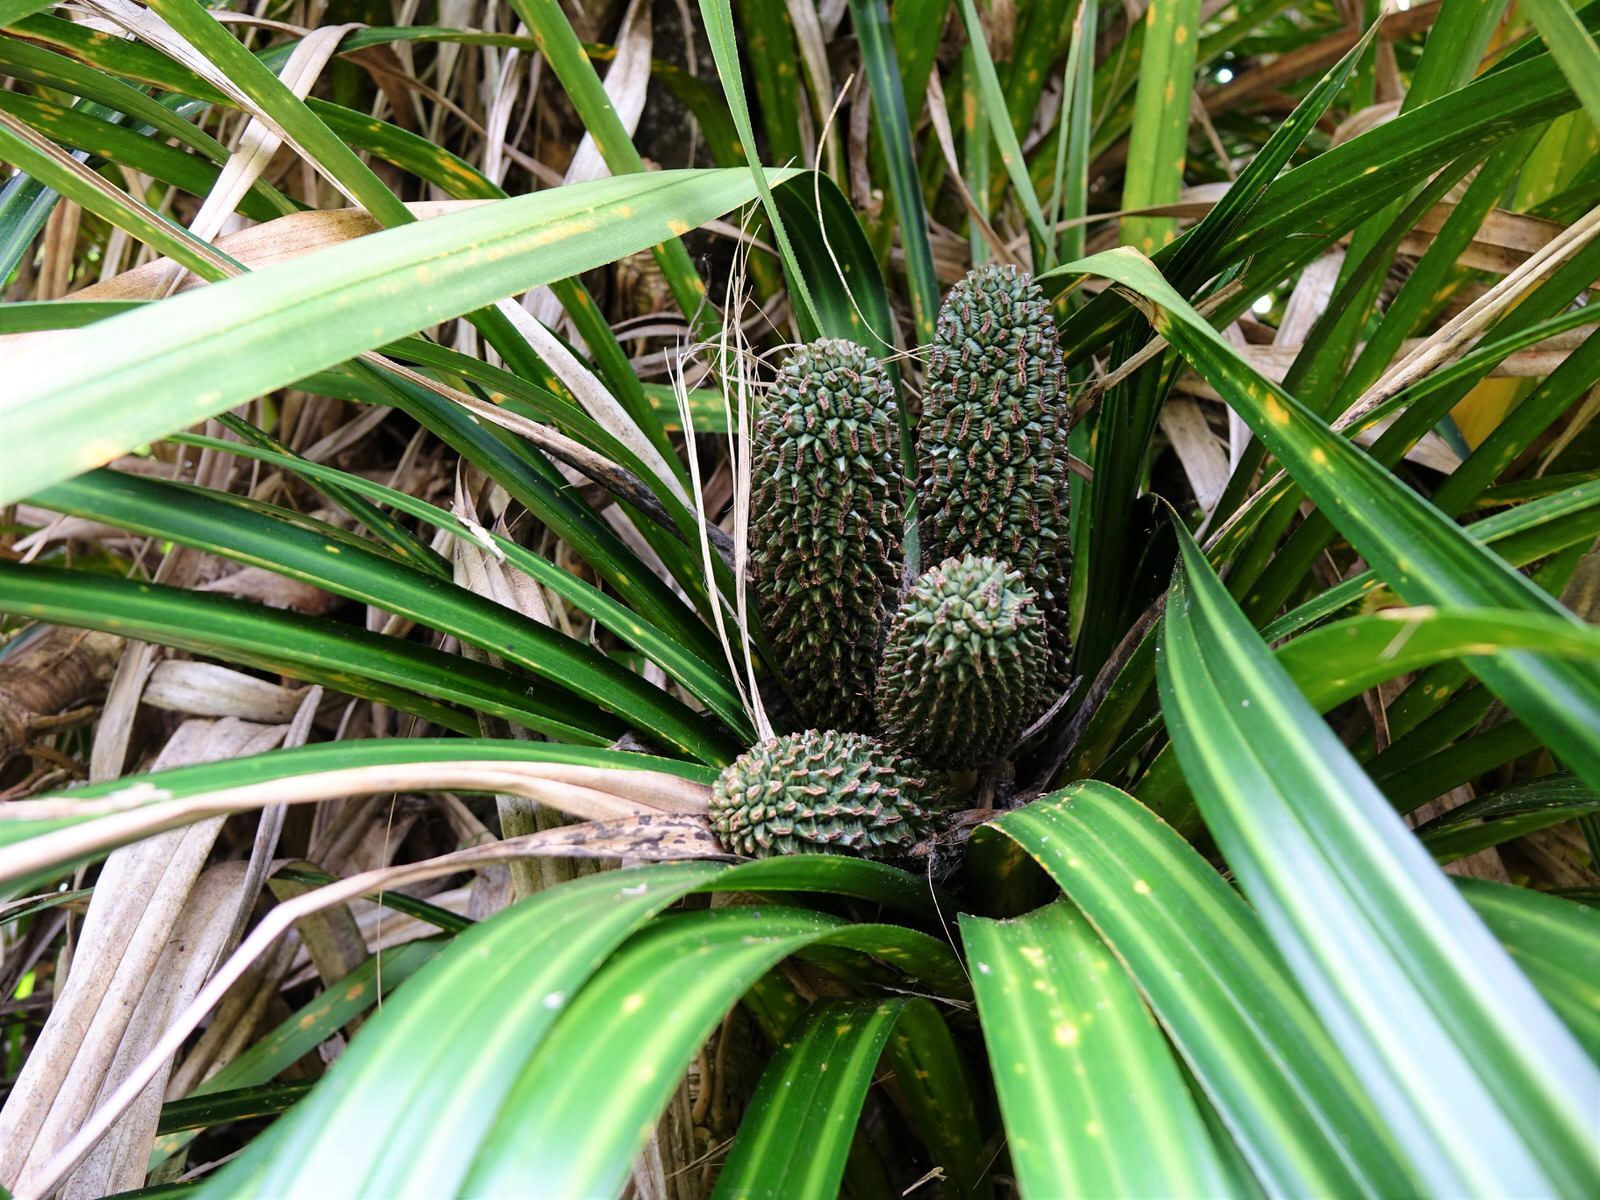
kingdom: Plantae
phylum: Tracheophyta
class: Liliopsida
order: Pandanales
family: Pandanaceae
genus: Freycinetia
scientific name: Freycinetia banksii
